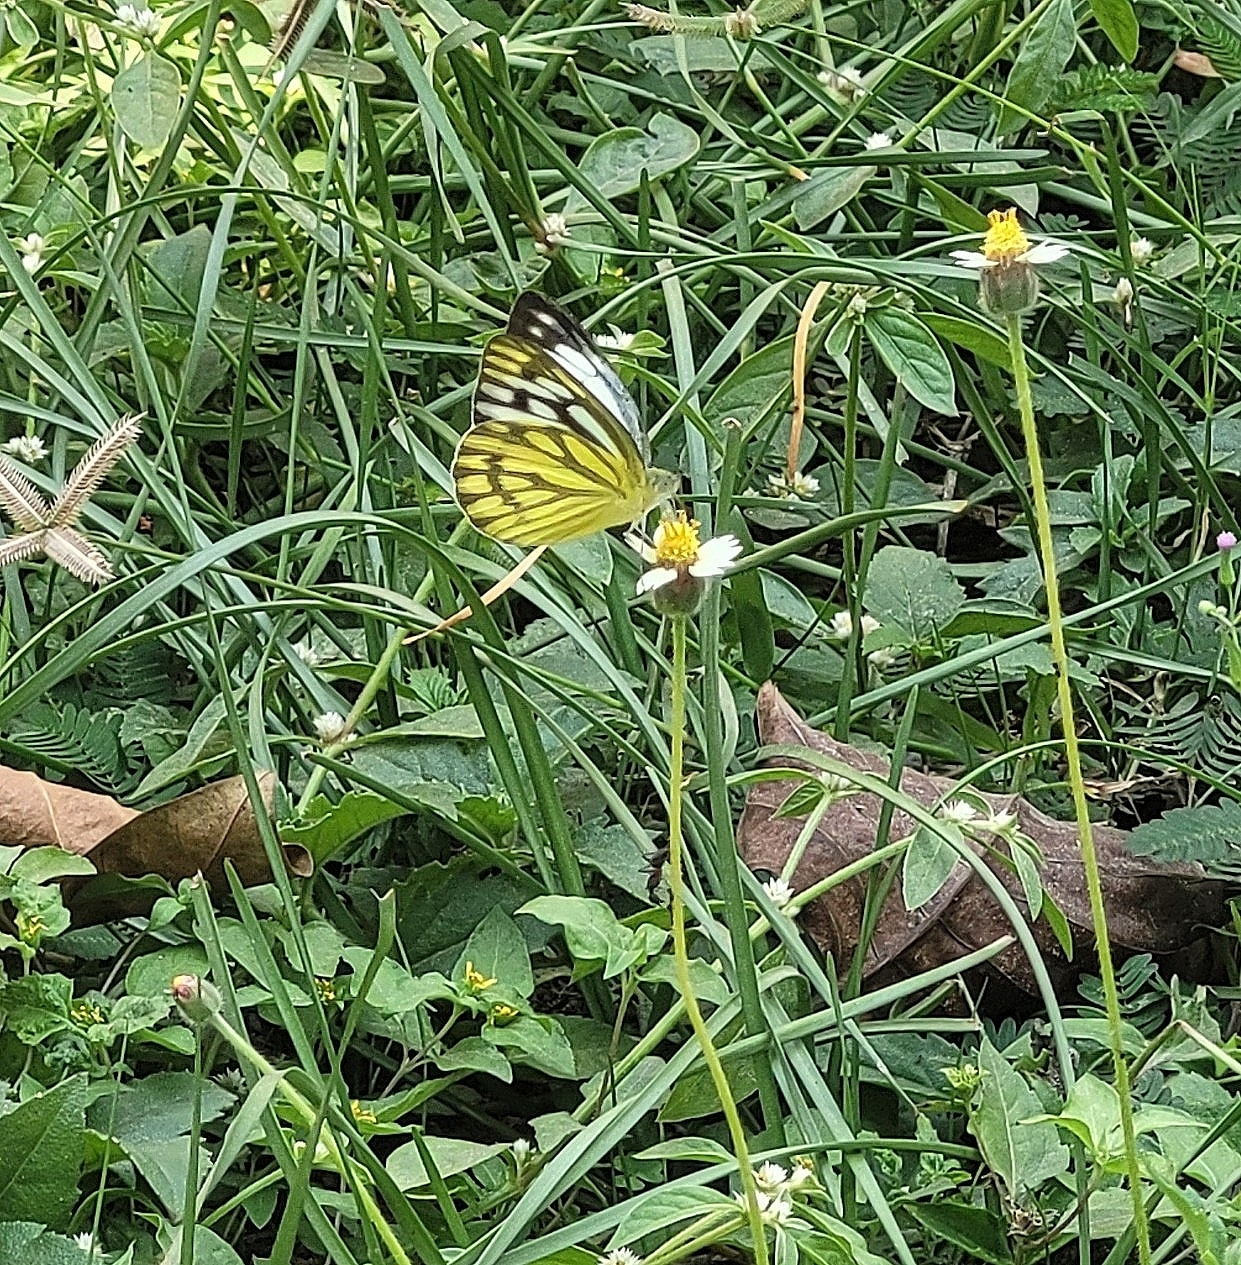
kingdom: Animalia
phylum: Arthropoda
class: Insecta
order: Lepidoptera
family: Pieridae
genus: Cepora
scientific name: Cepora nerissa
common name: Common gull
